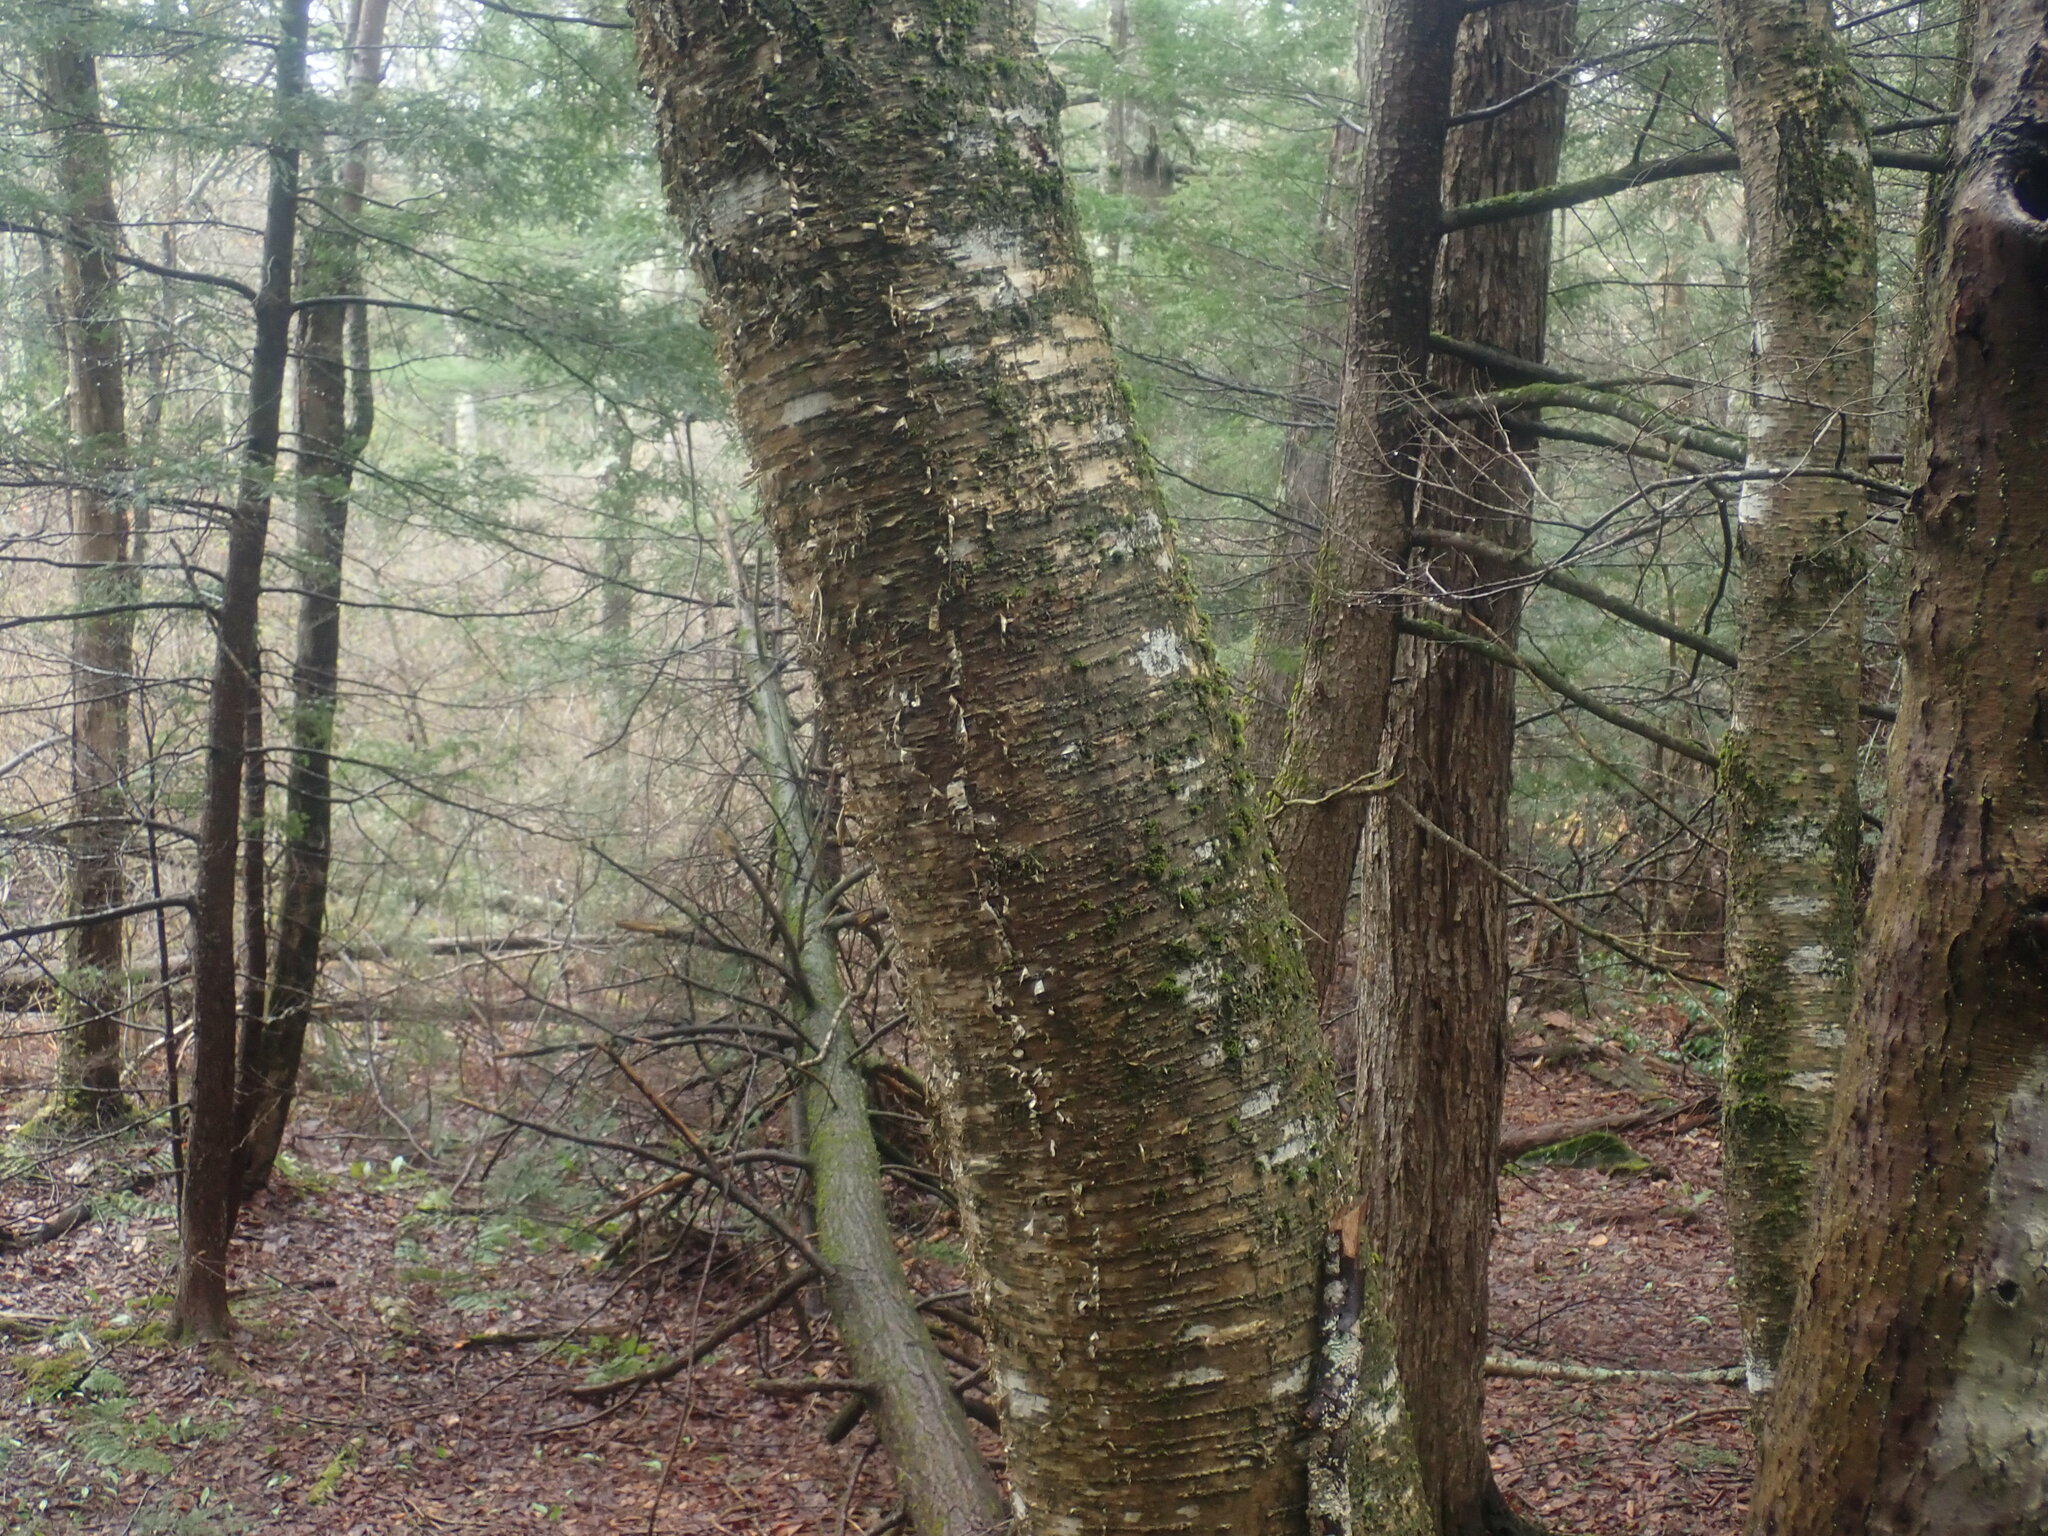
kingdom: Plantae
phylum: Tracheophyta
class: Magnoliopsida
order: Fagales
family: Betulaceae
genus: Betula
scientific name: Betula alleghaniensis
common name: Yellow birch
